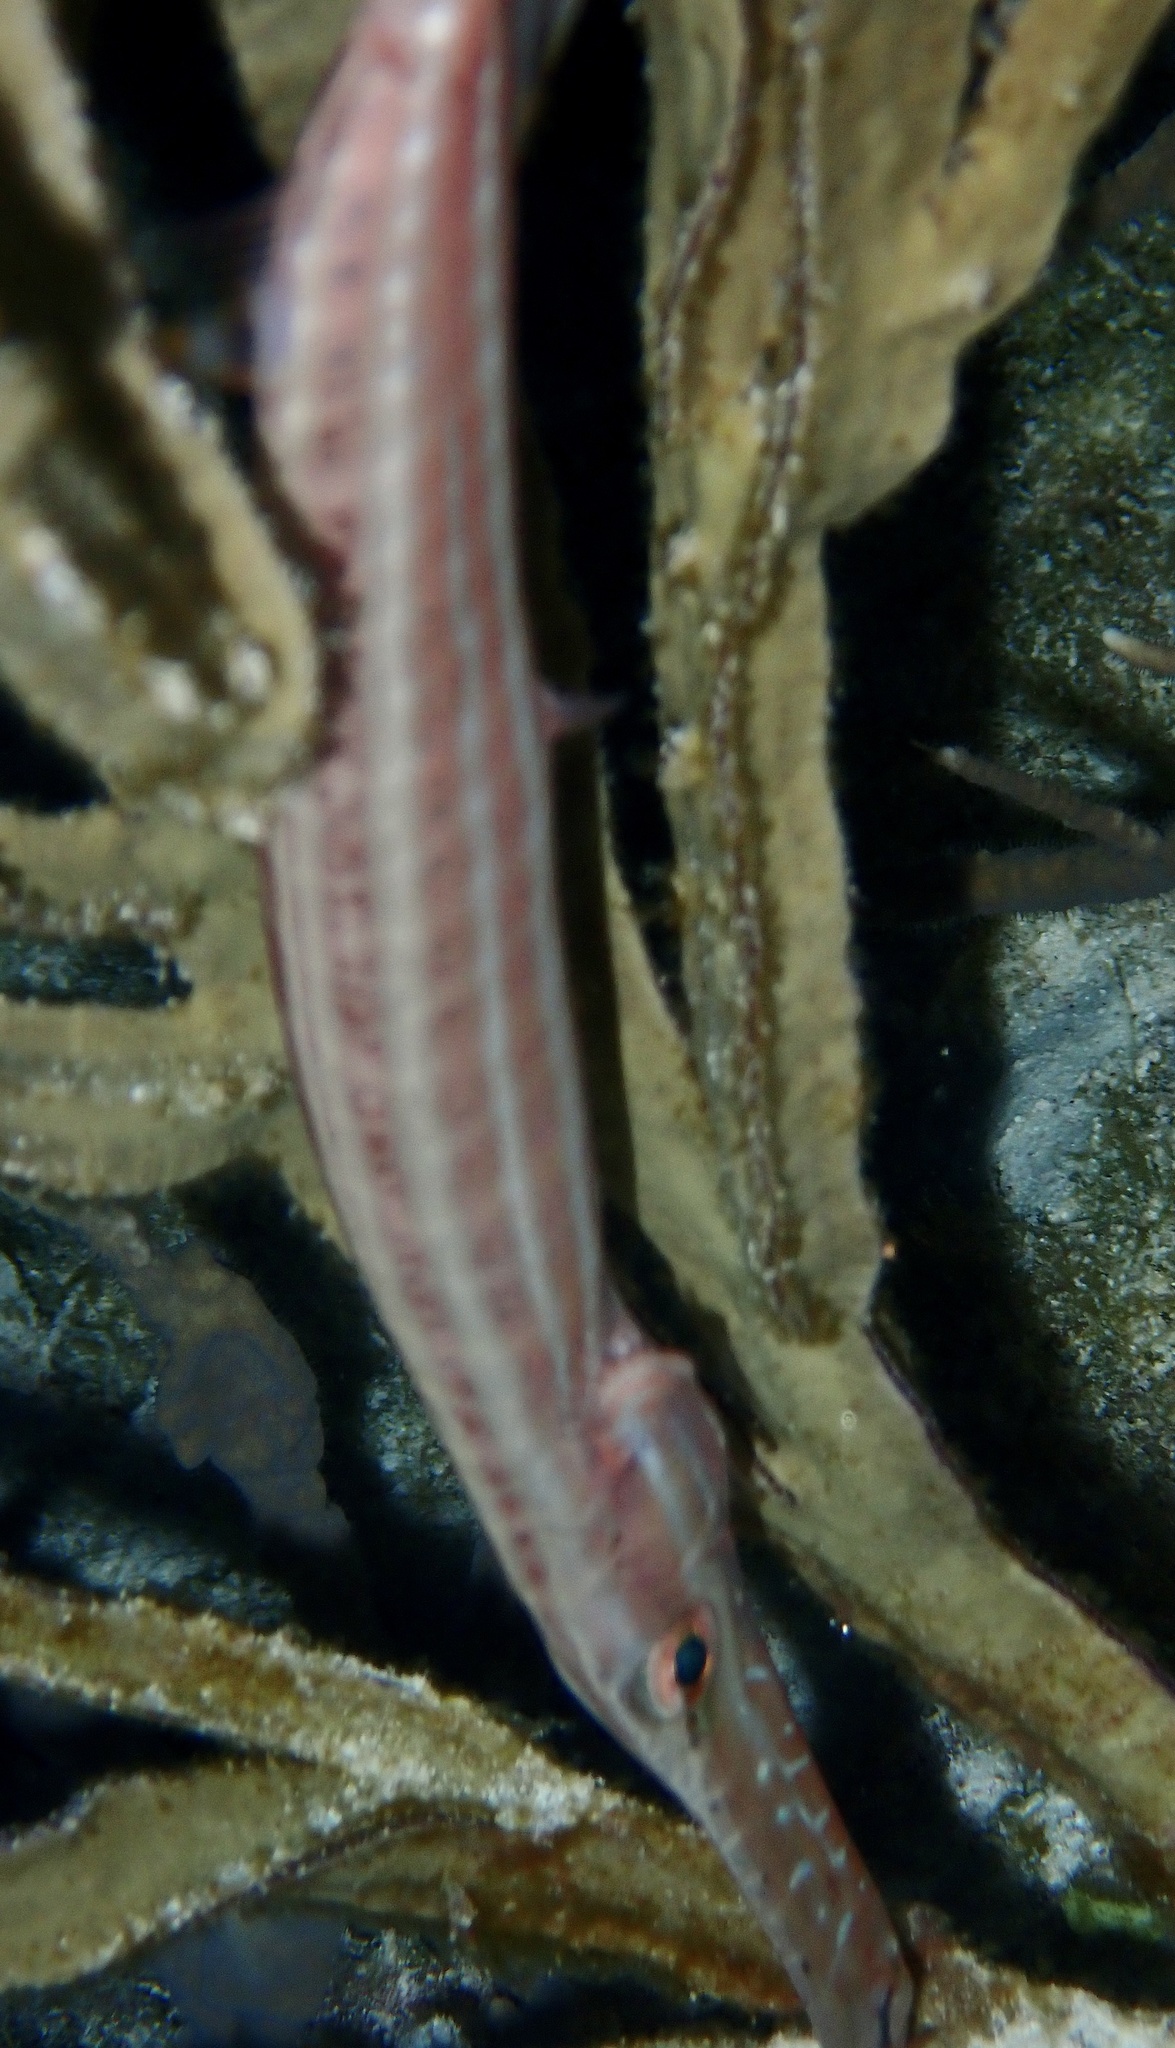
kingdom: Animalia
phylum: Chordata
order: Syngnathiformes
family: Aulostomidae
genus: Aulostomus
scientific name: Aulostomus maculatus
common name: West atlantic trumpetfish
